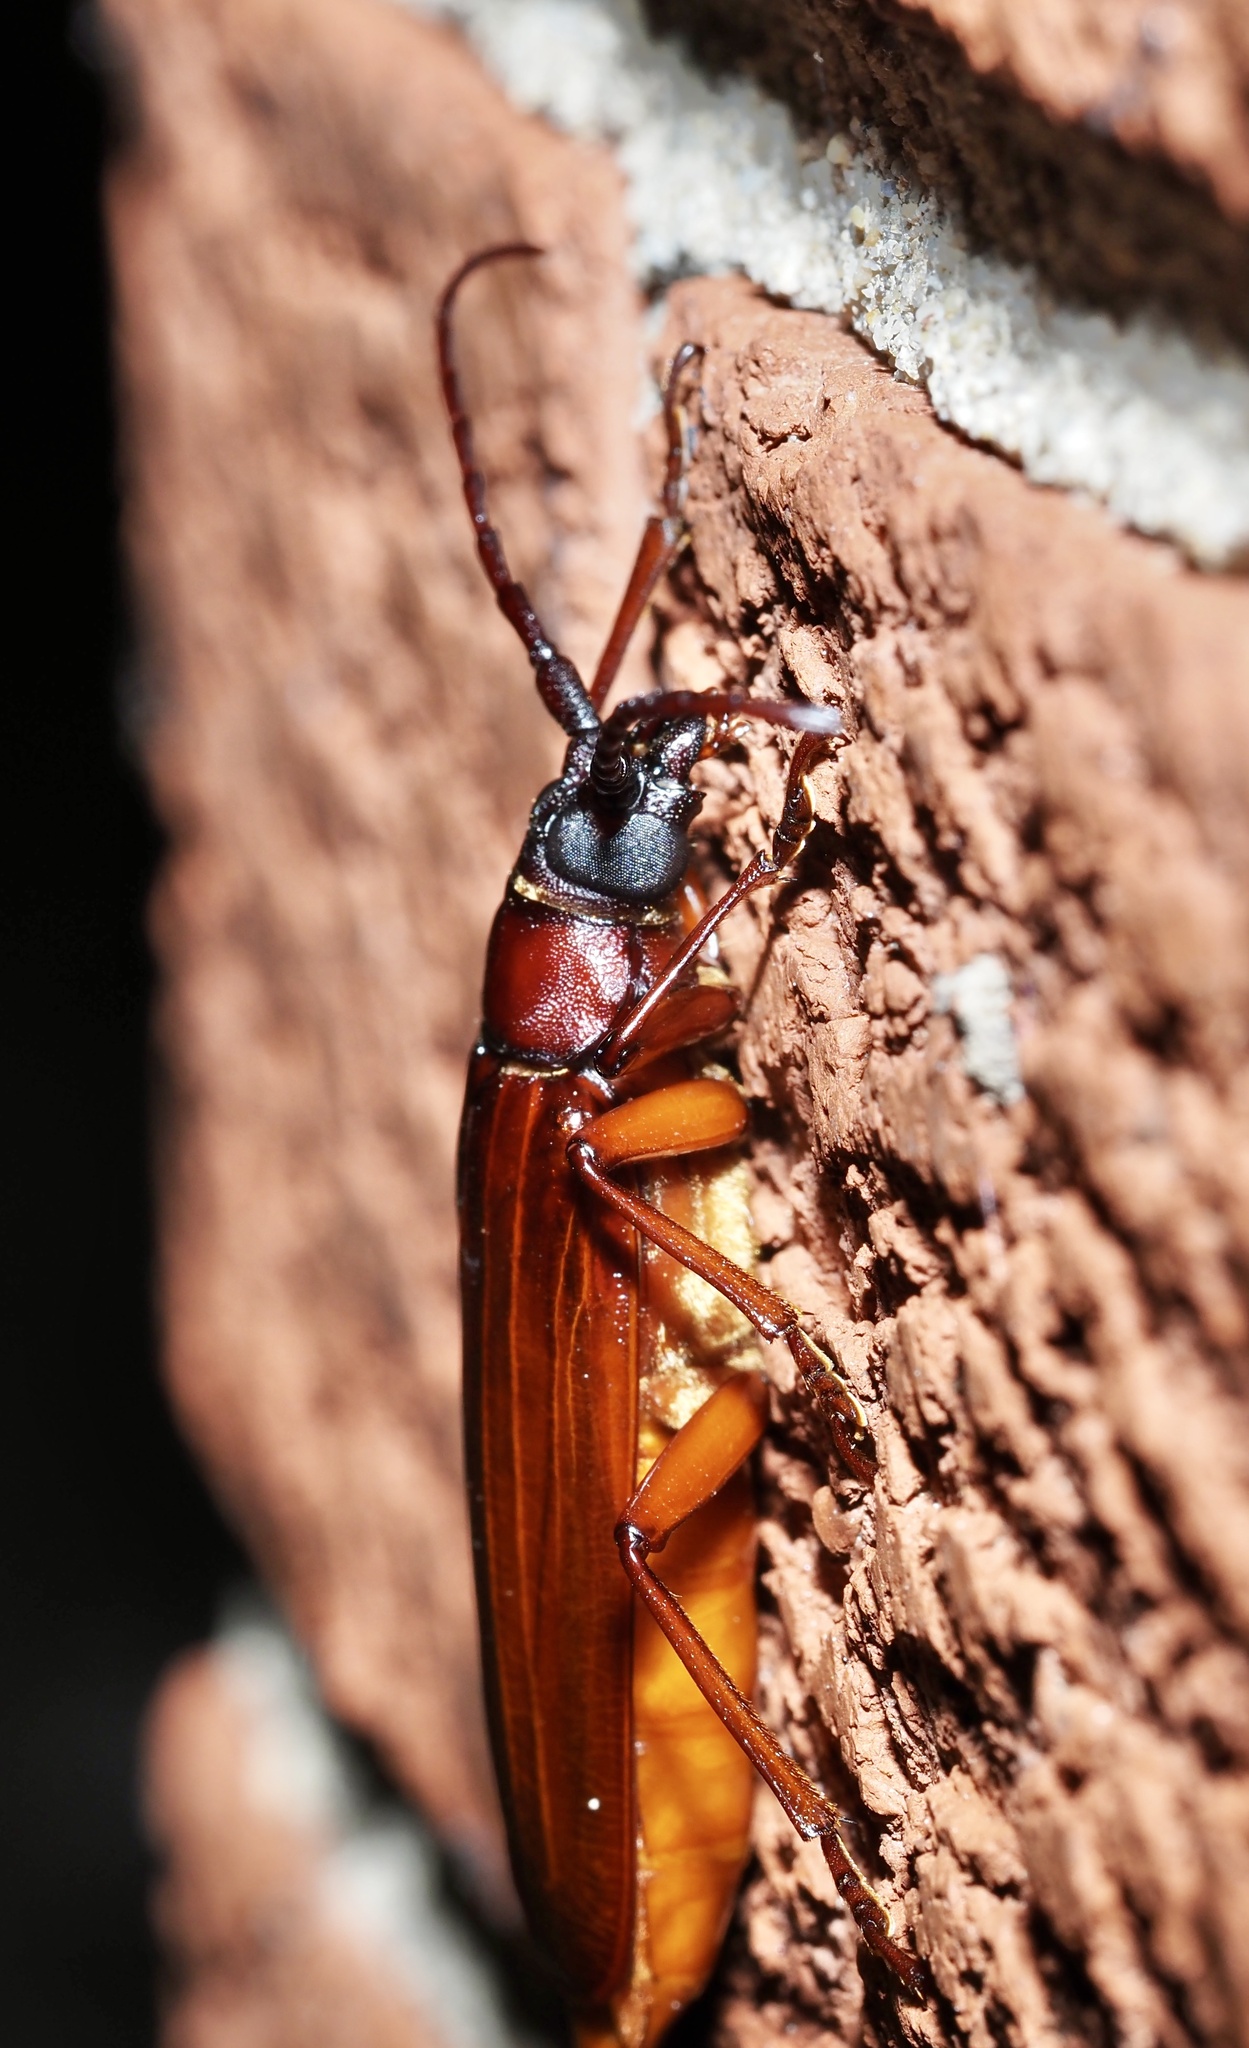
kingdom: Animalia
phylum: Arthropoda
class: Insecta
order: Coleoptera
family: Cerambycidae
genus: Orthosoma
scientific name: Orthosoma brunneum
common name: Brown prionid beetle
